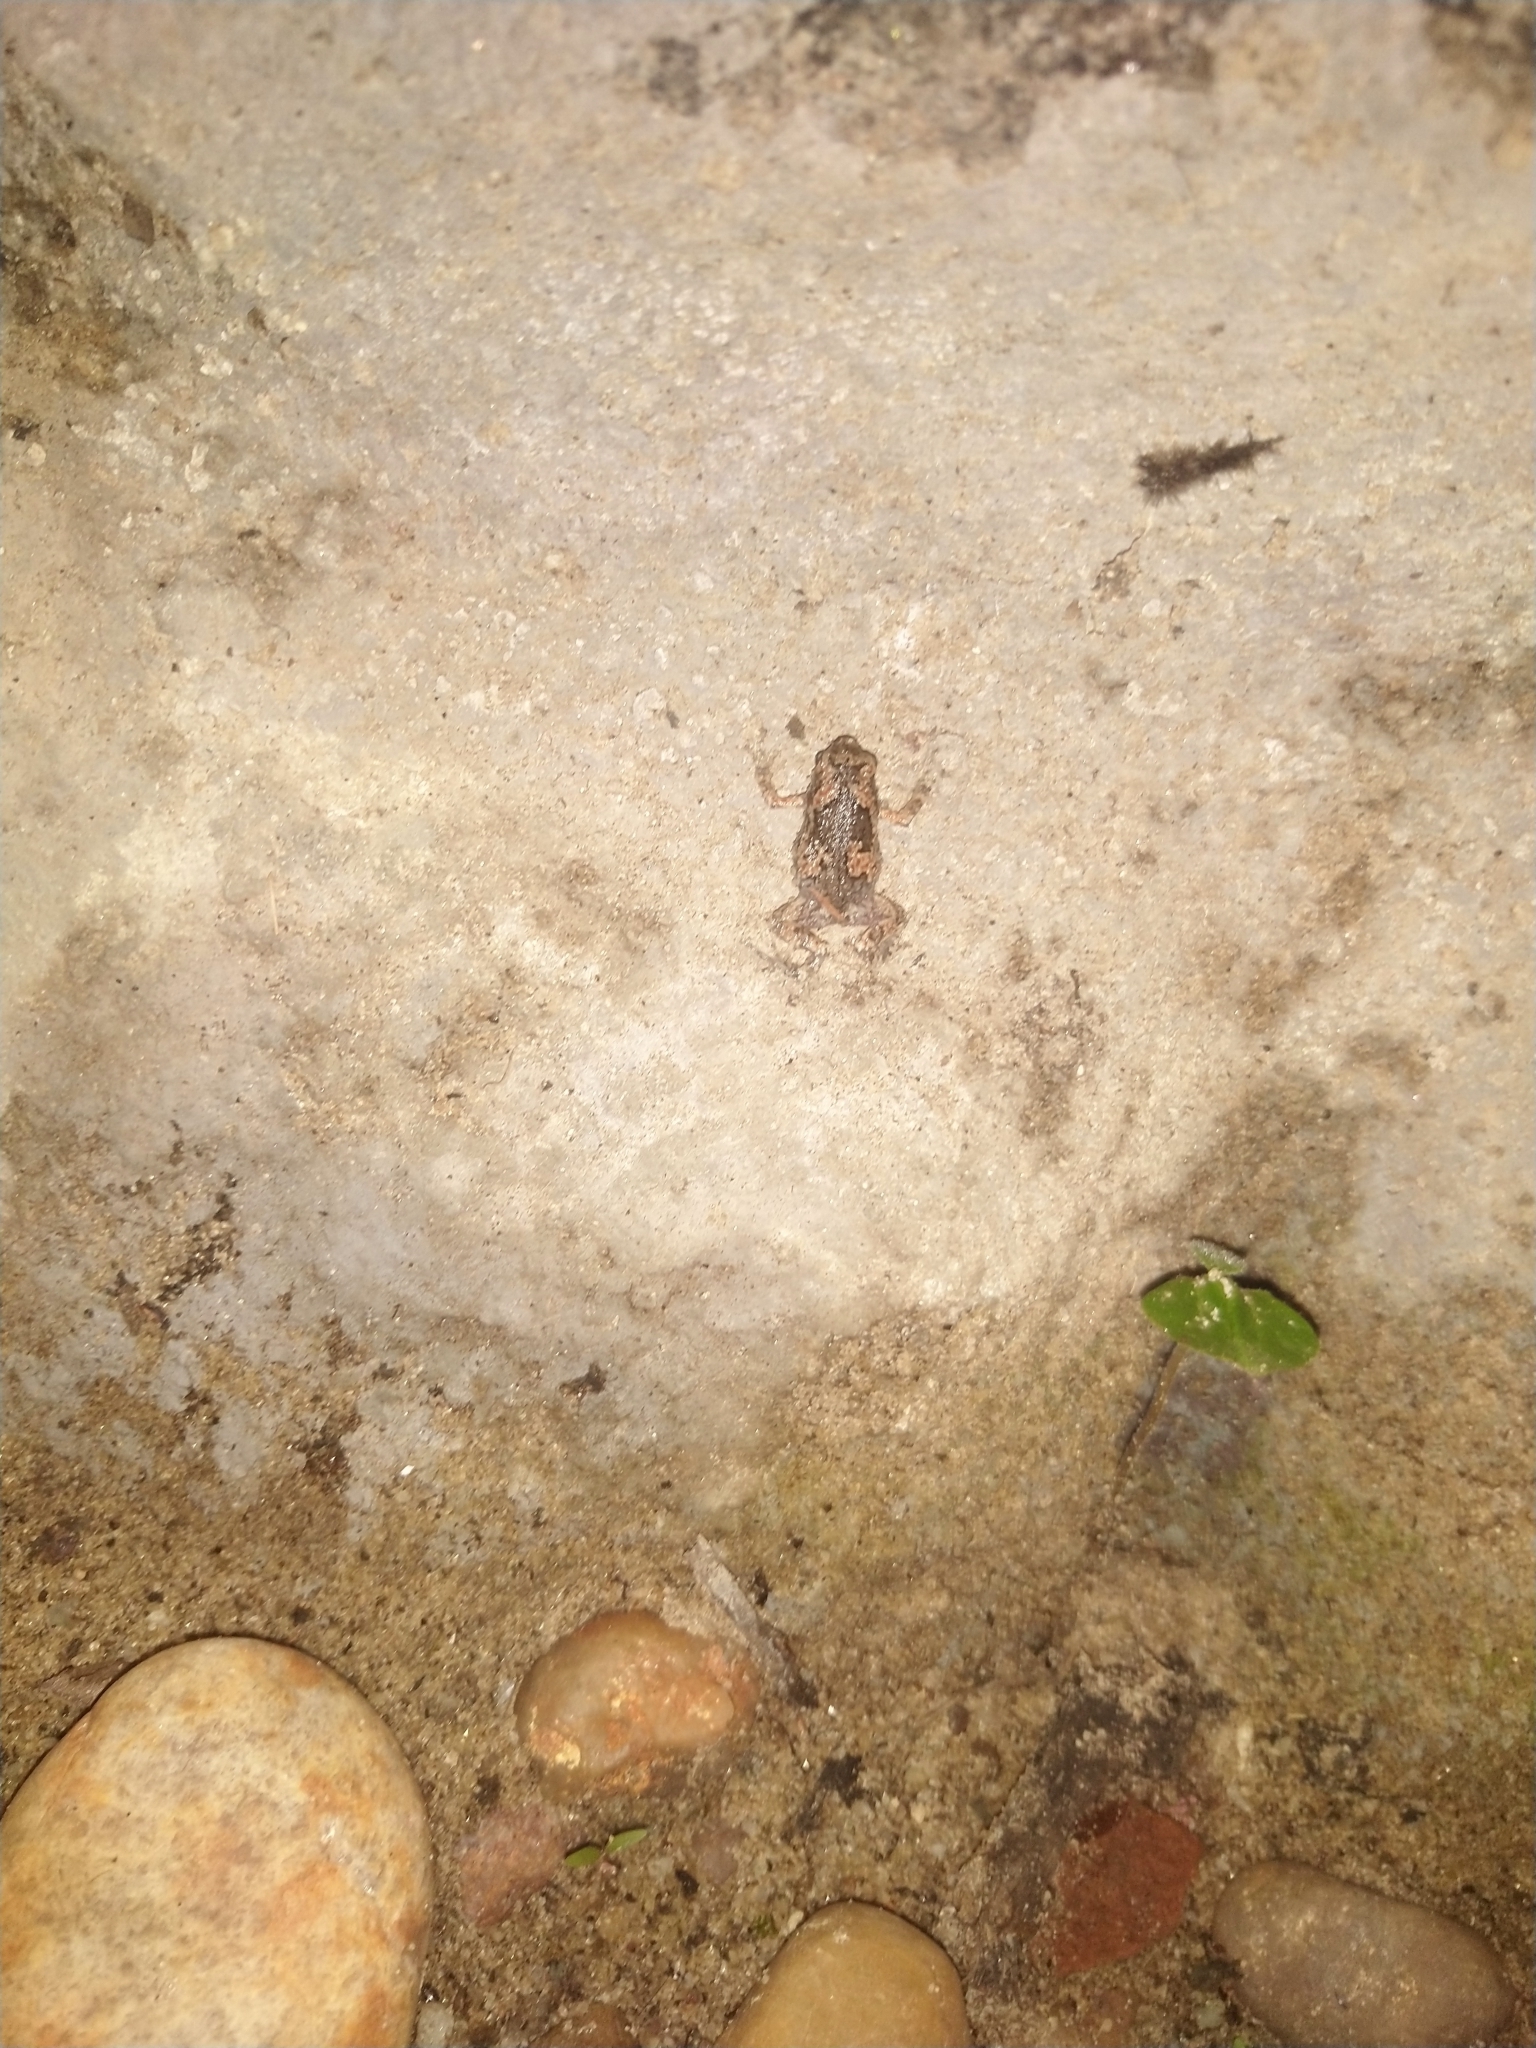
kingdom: Animalia
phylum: Chordata
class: Amphibia
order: Anura
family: Microhylidae
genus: Uperodon
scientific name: Uperodon taprobanicus
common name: Ceylon kaloula
